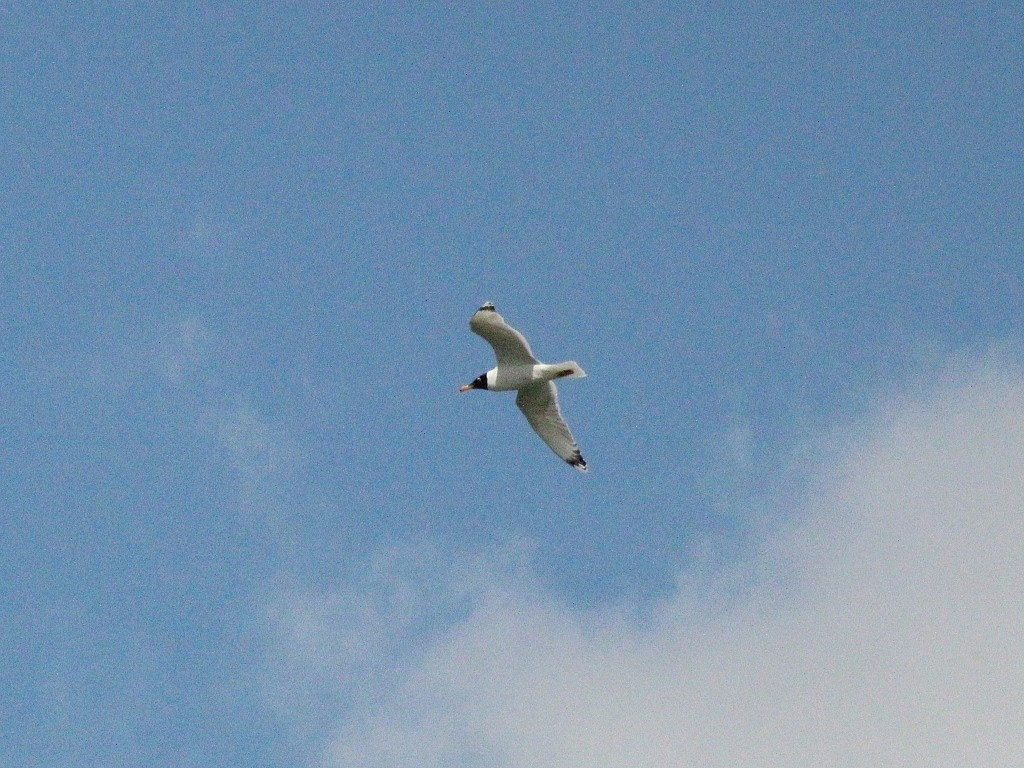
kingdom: Animalia
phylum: Chordata
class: Aves
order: Charadriiformes
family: Laridae
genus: Ichthyaetus
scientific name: Ichthyaetus ichthyaetus
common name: Pallas's gull
